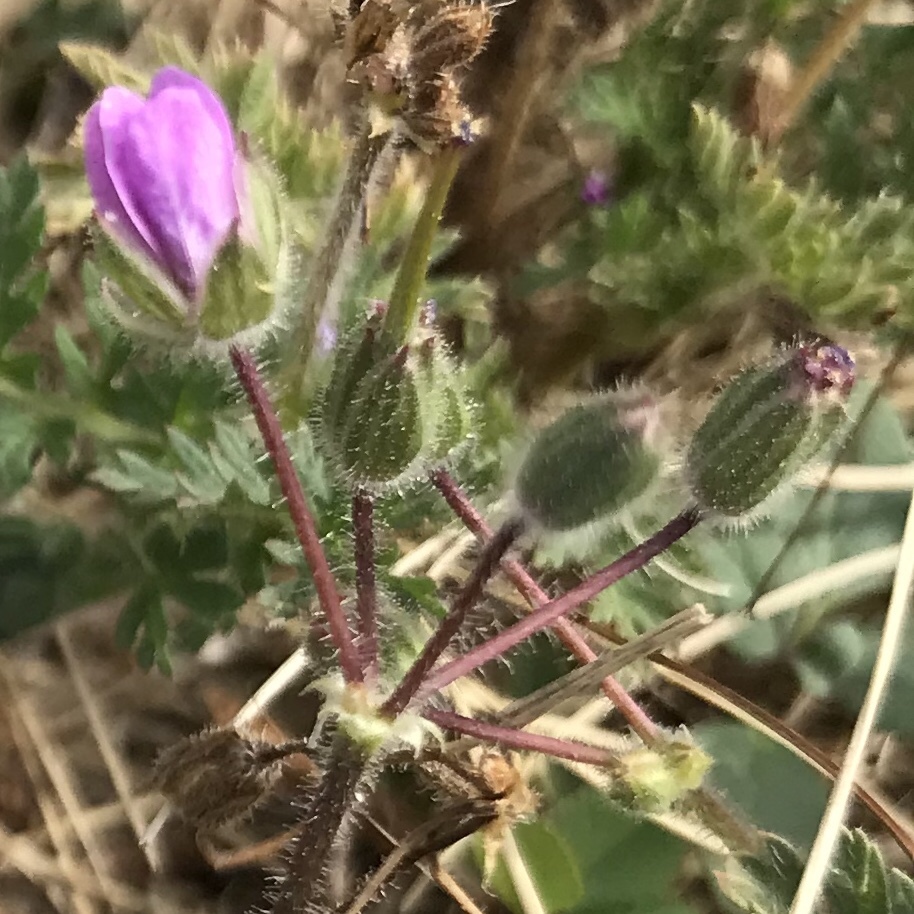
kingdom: Plantae
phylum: Tracheophyta
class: Magnoliopsida
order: Geraniales
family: Geraniaceae
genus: Erodium
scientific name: Erodium cicutarium
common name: Common stork's-bill
